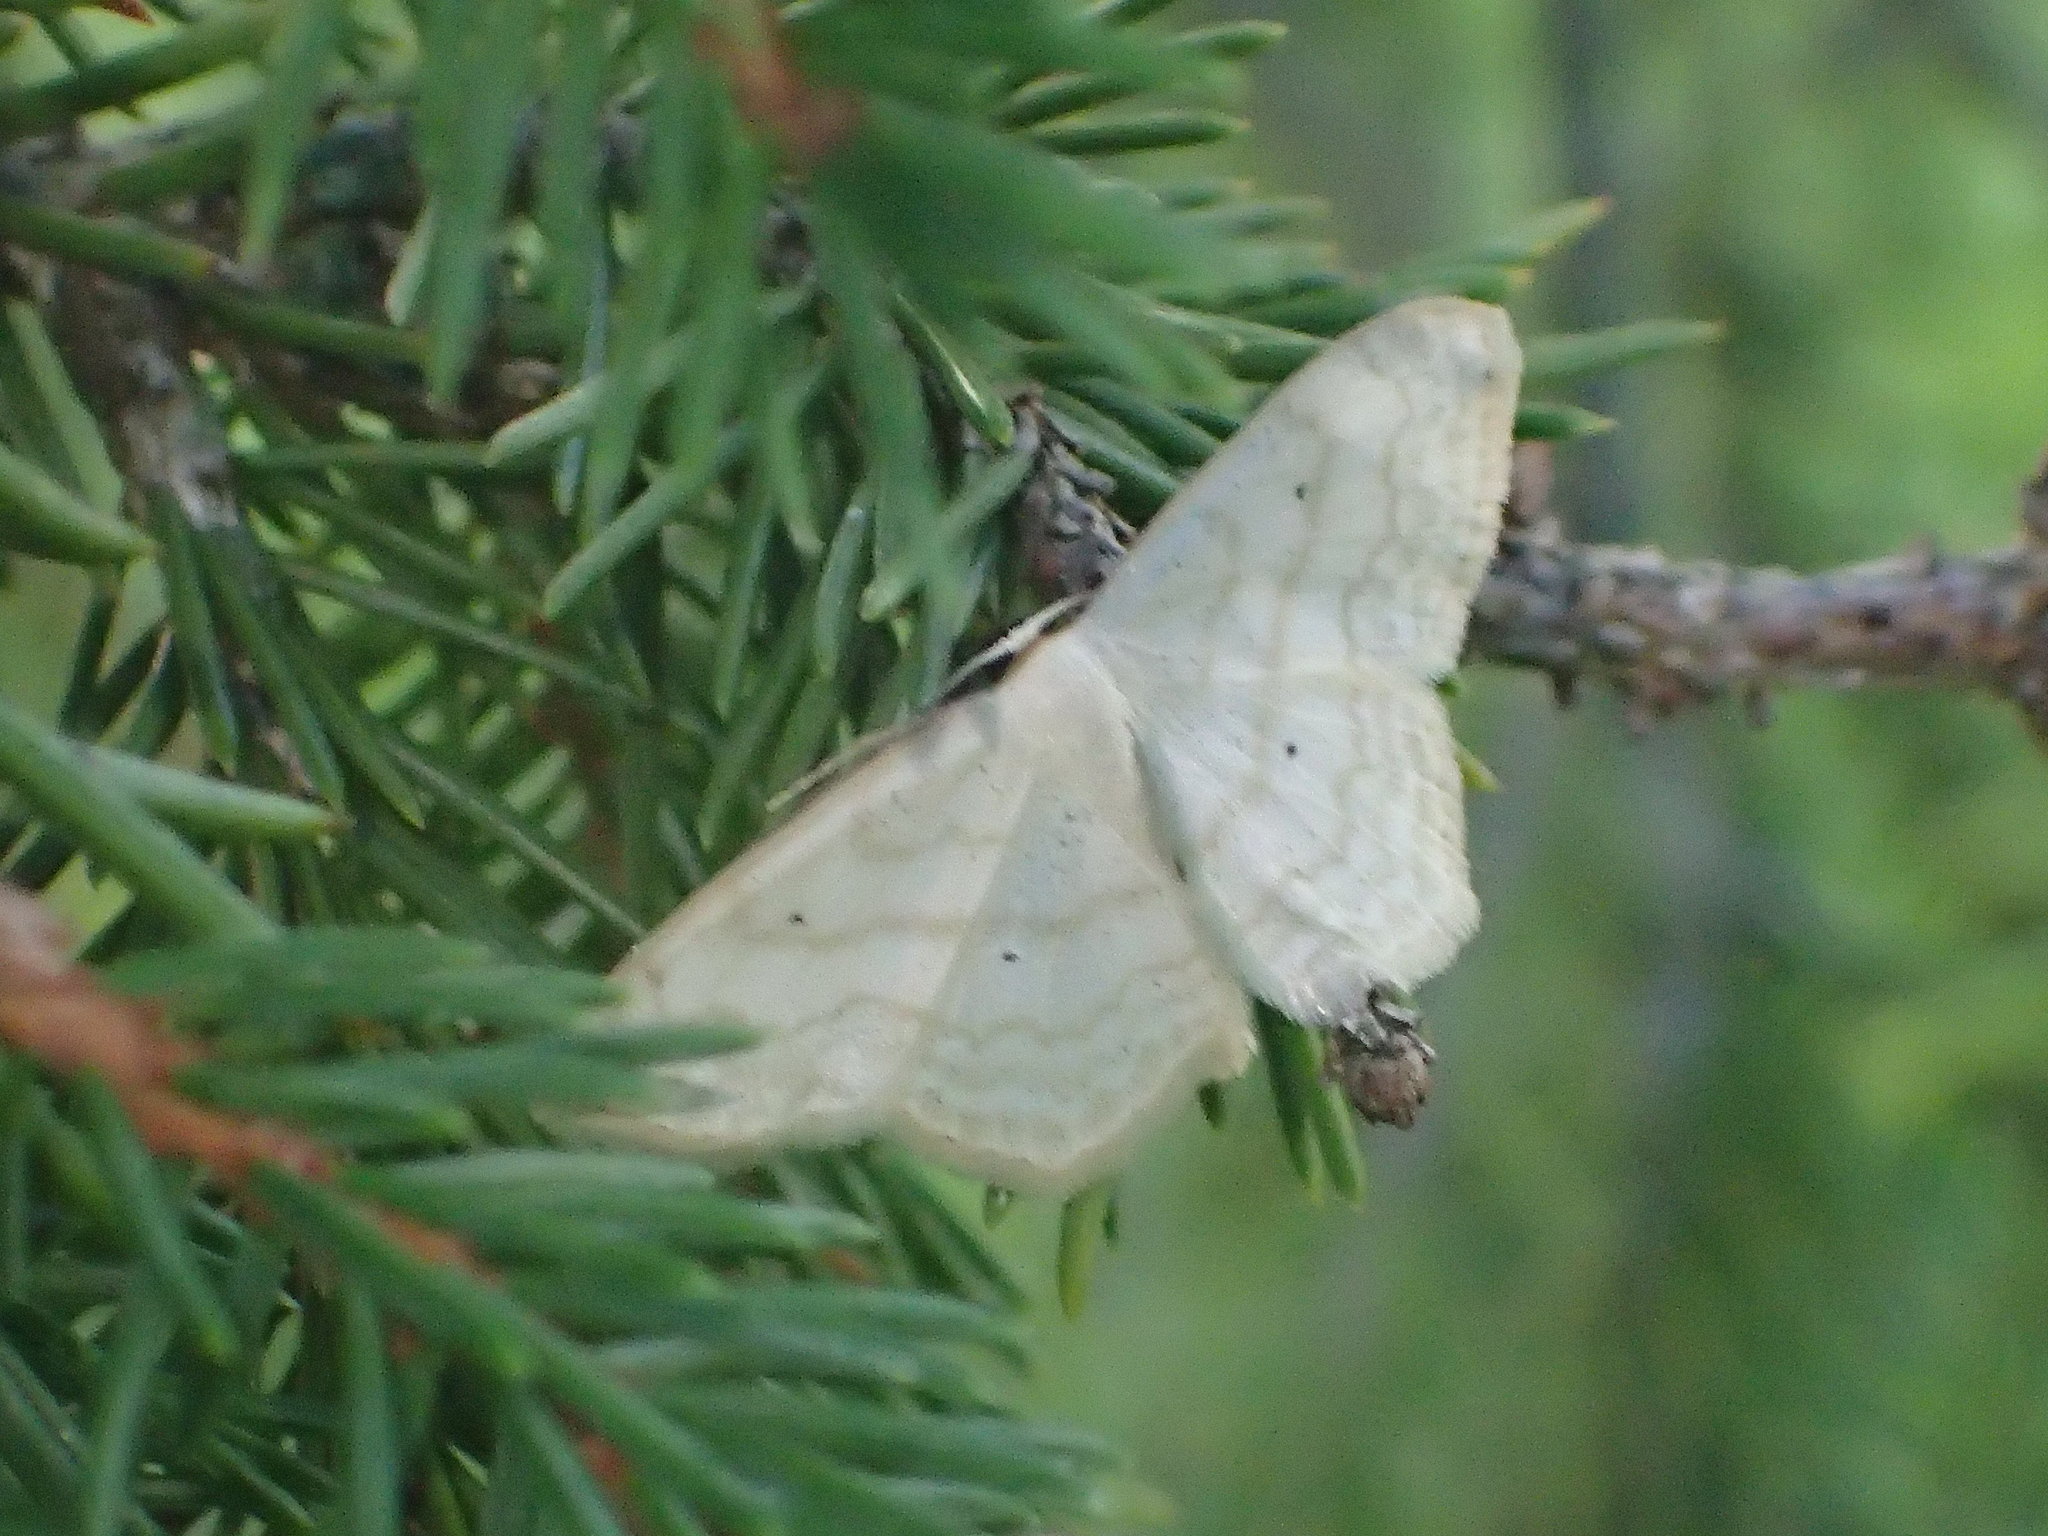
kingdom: Animalia
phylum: Arthropoda
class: Insecta
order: Lepidoptera
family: Geometridae
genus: Scopula
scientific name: Scopula limboundata
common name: Large lace border
